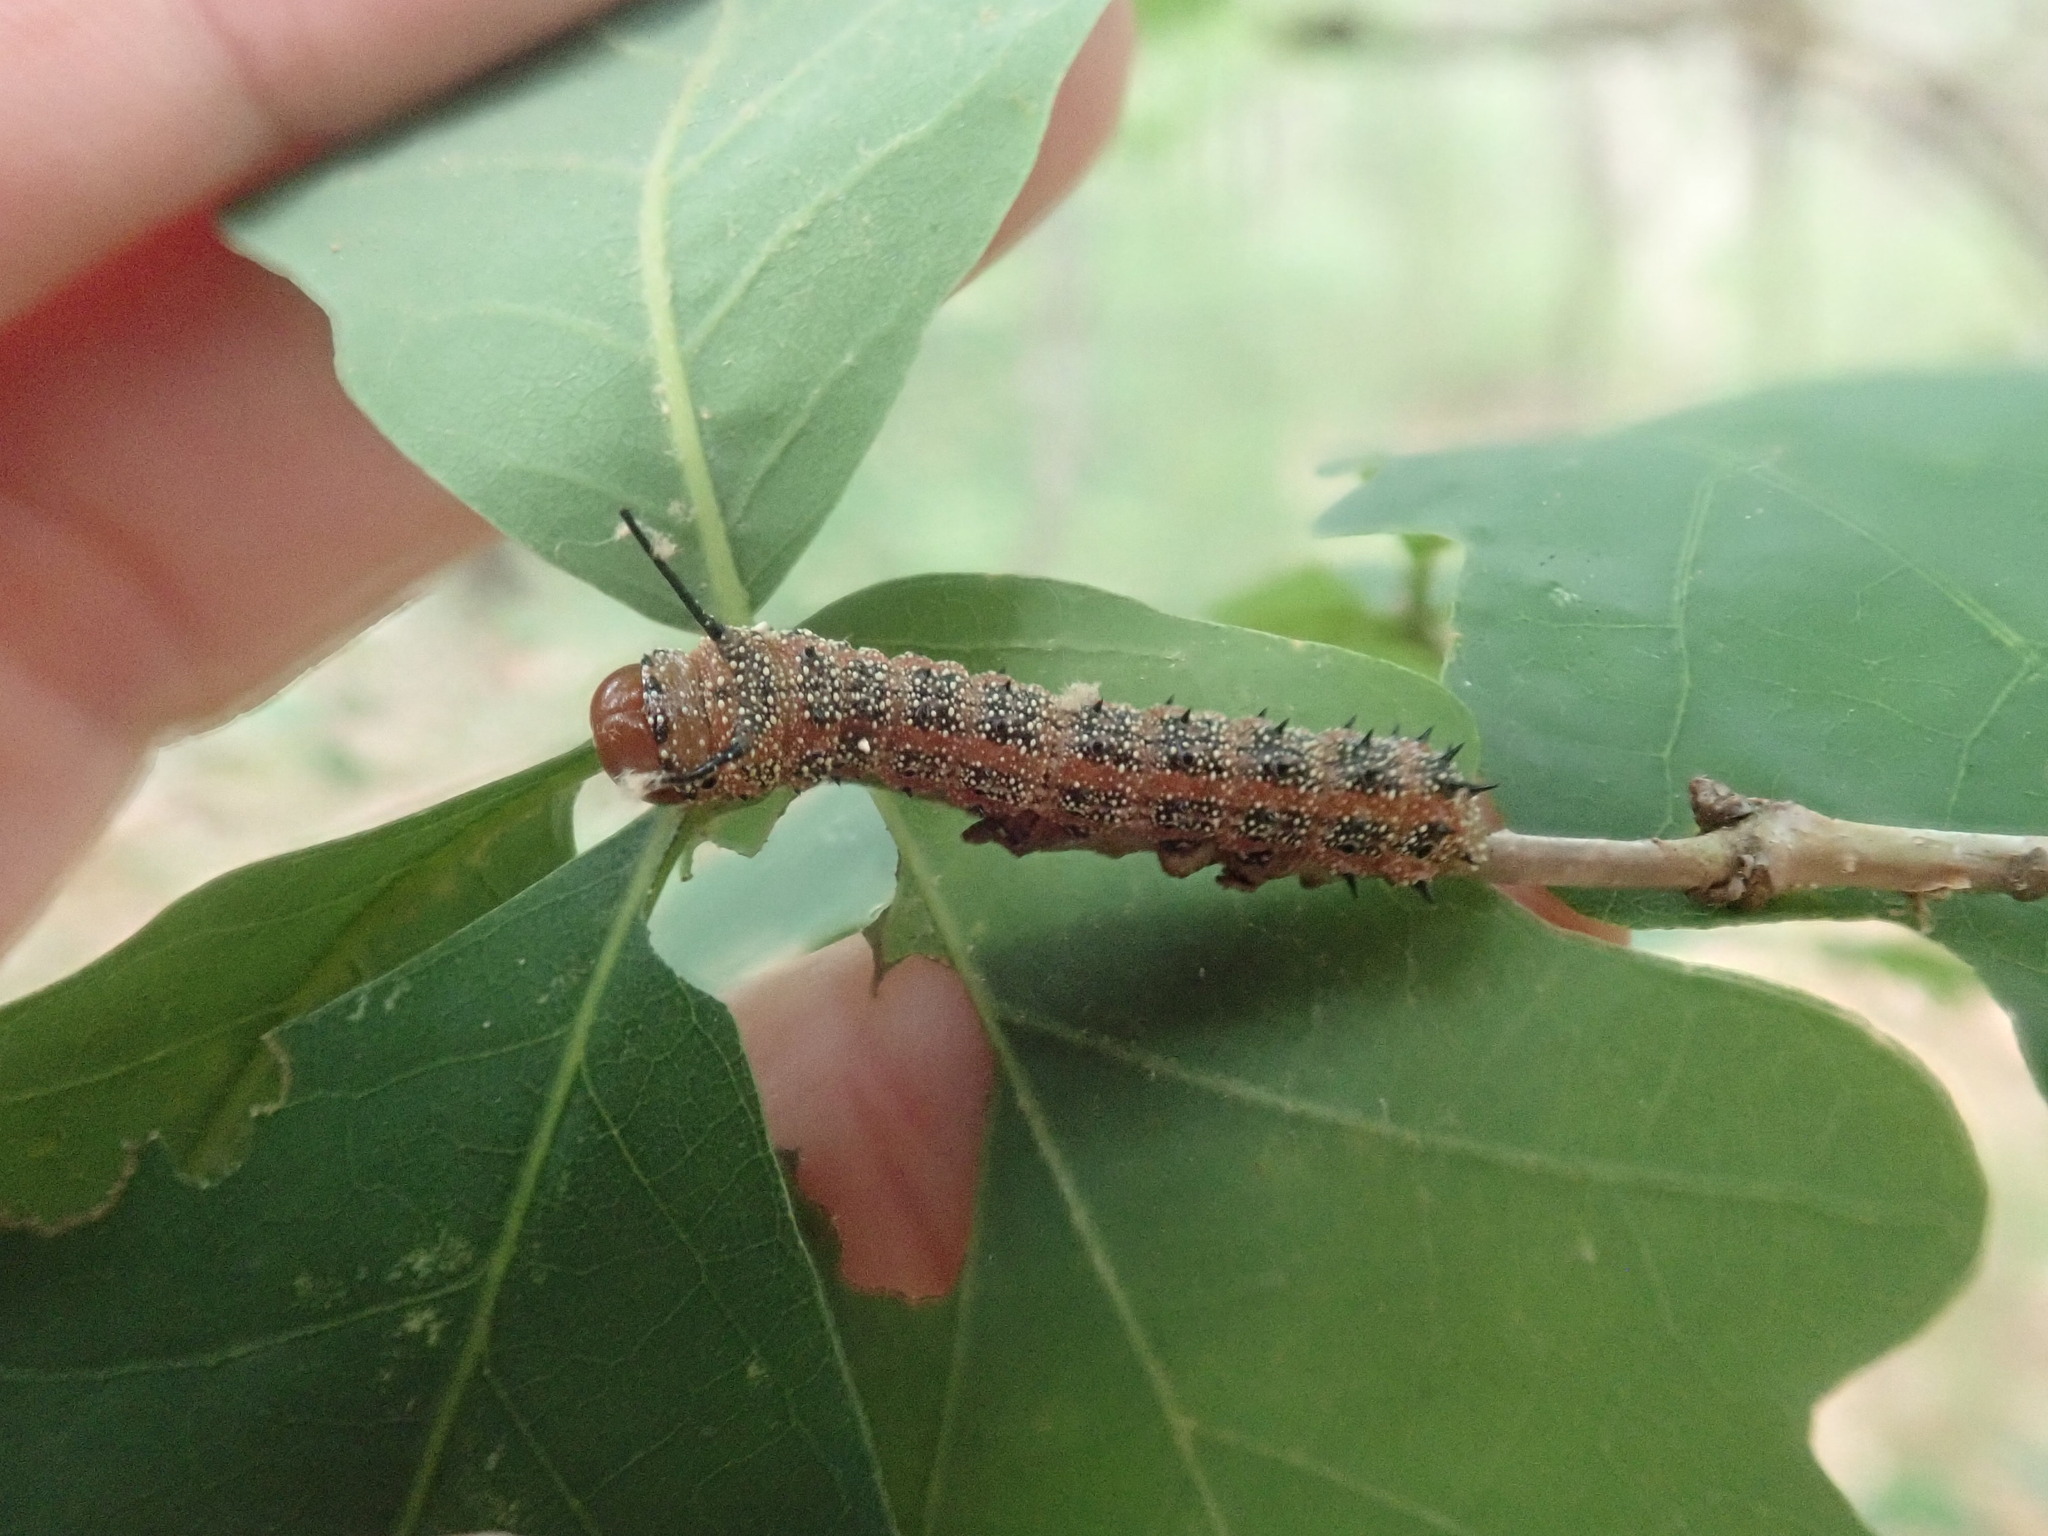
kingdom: Animalia
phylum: Arthropoda
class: Insecta
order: Lepidoptera
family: Saturniidae
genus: Anisota
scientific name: Anisota virginiensis
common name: Pink striped oakworm moth
